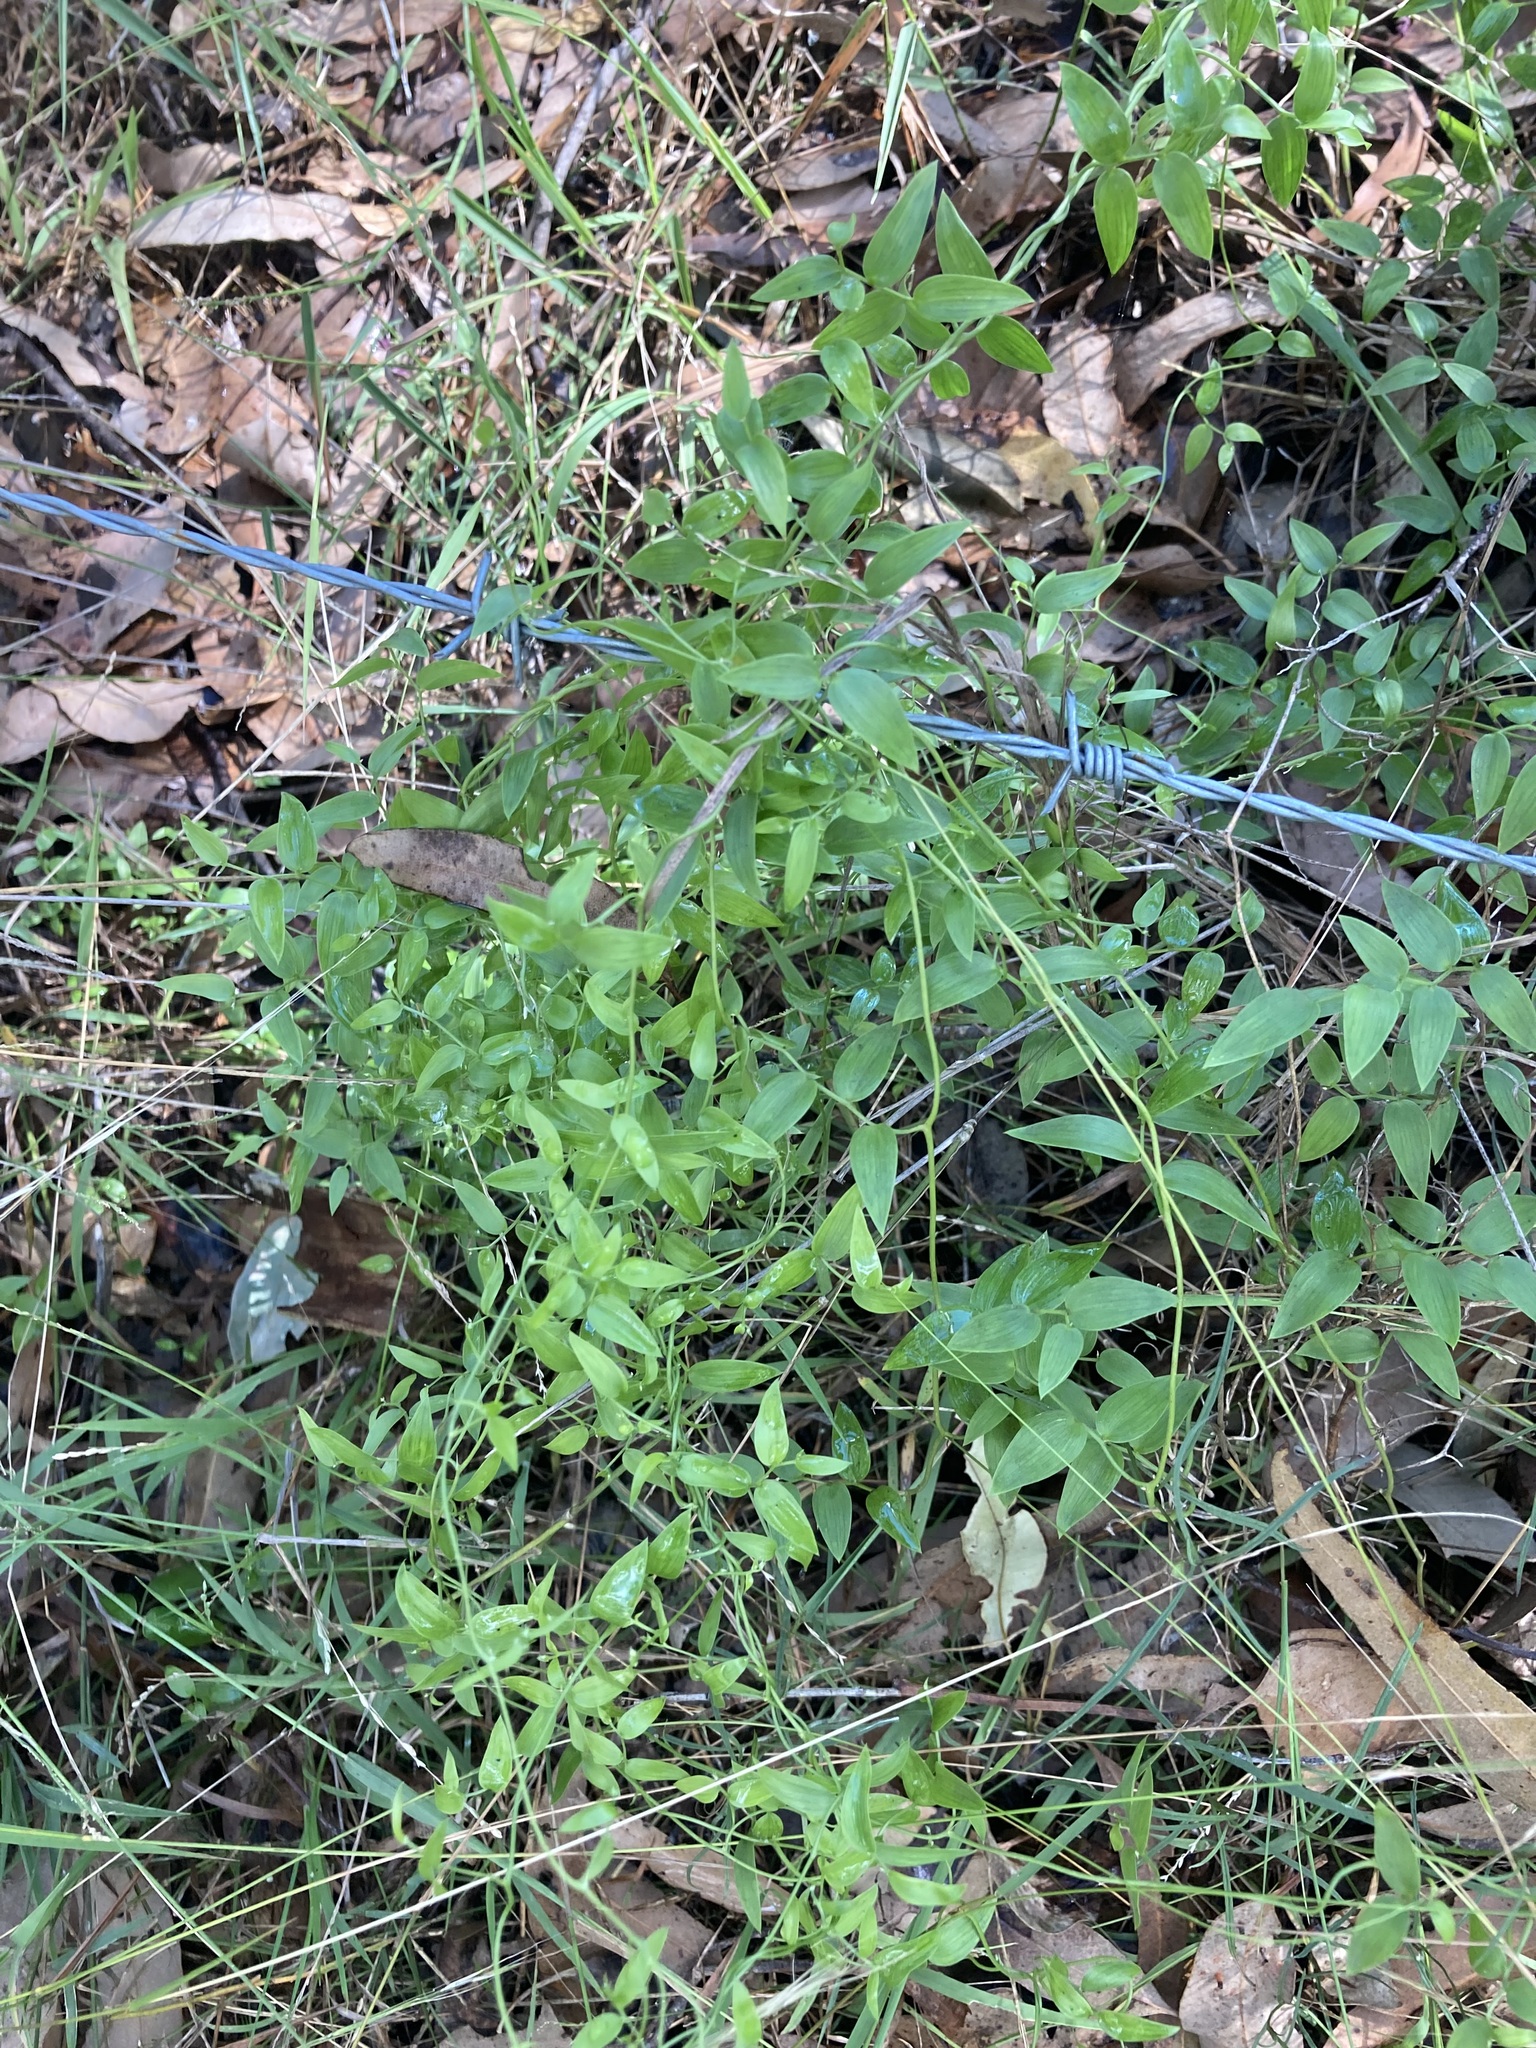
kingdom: Plantae
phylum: Tracheophyta
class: Liliopsida
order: Asparagales
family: Asparagaceae
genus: Asparagus
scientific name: Asparagus asparagoides
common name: African asparagus fern
